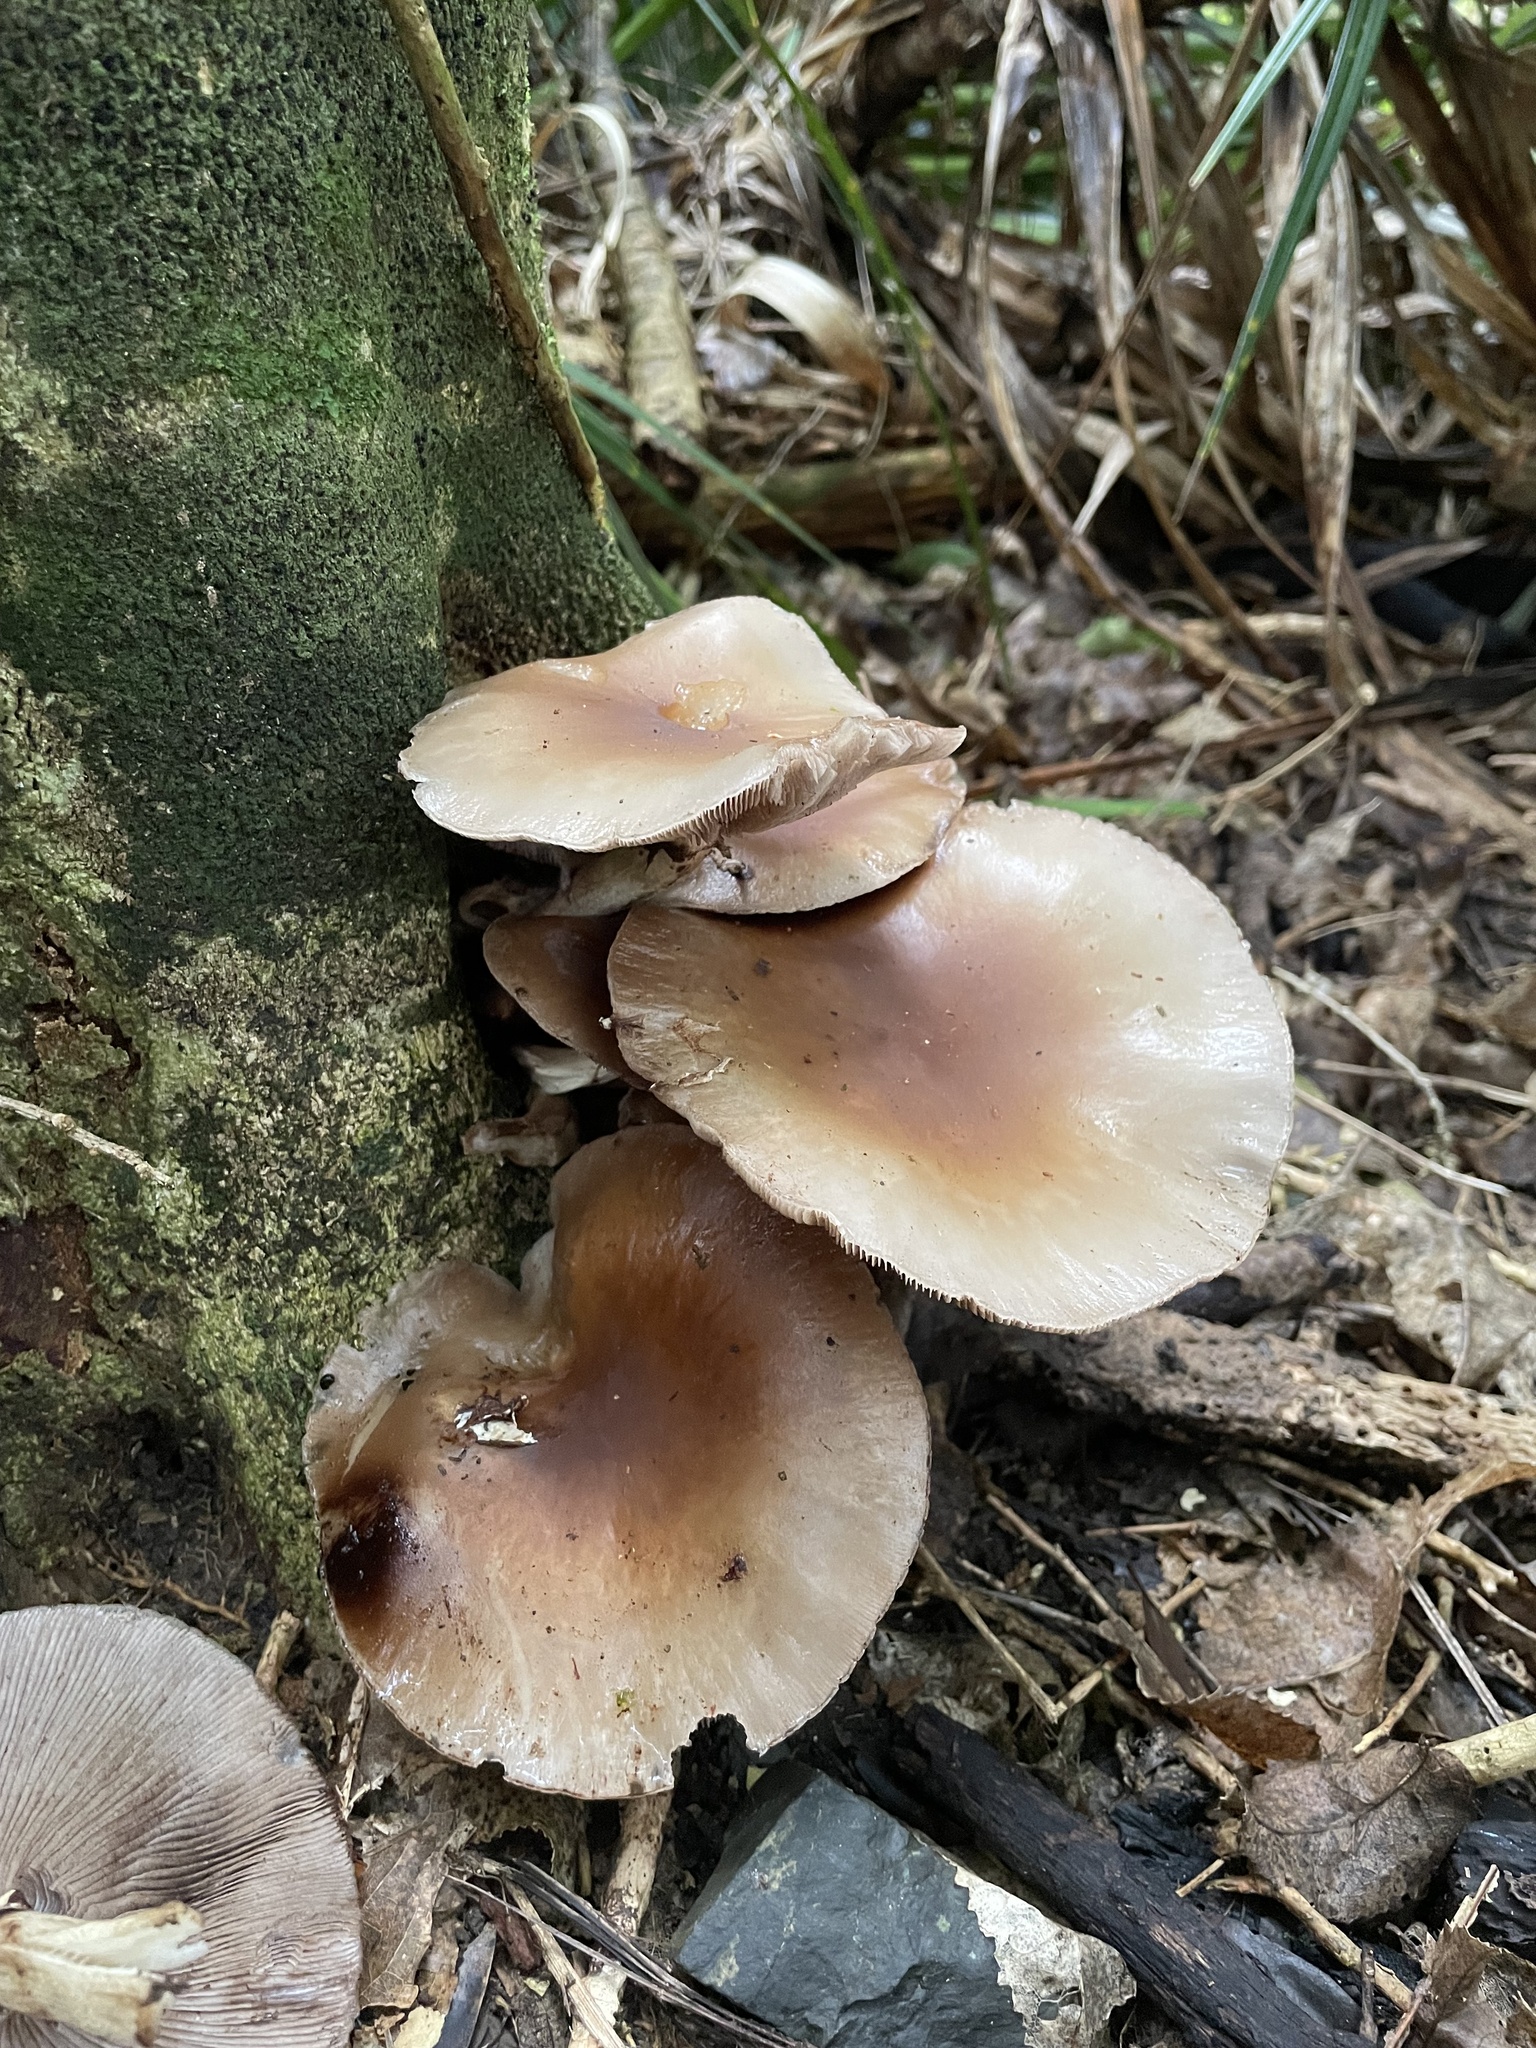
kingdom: Fungi
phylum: Basidiomycota
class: Agaricomycetes
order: Agaricales
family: Tubariaceae
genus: Cyclocybe
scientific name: Cyclocybe parasitica
